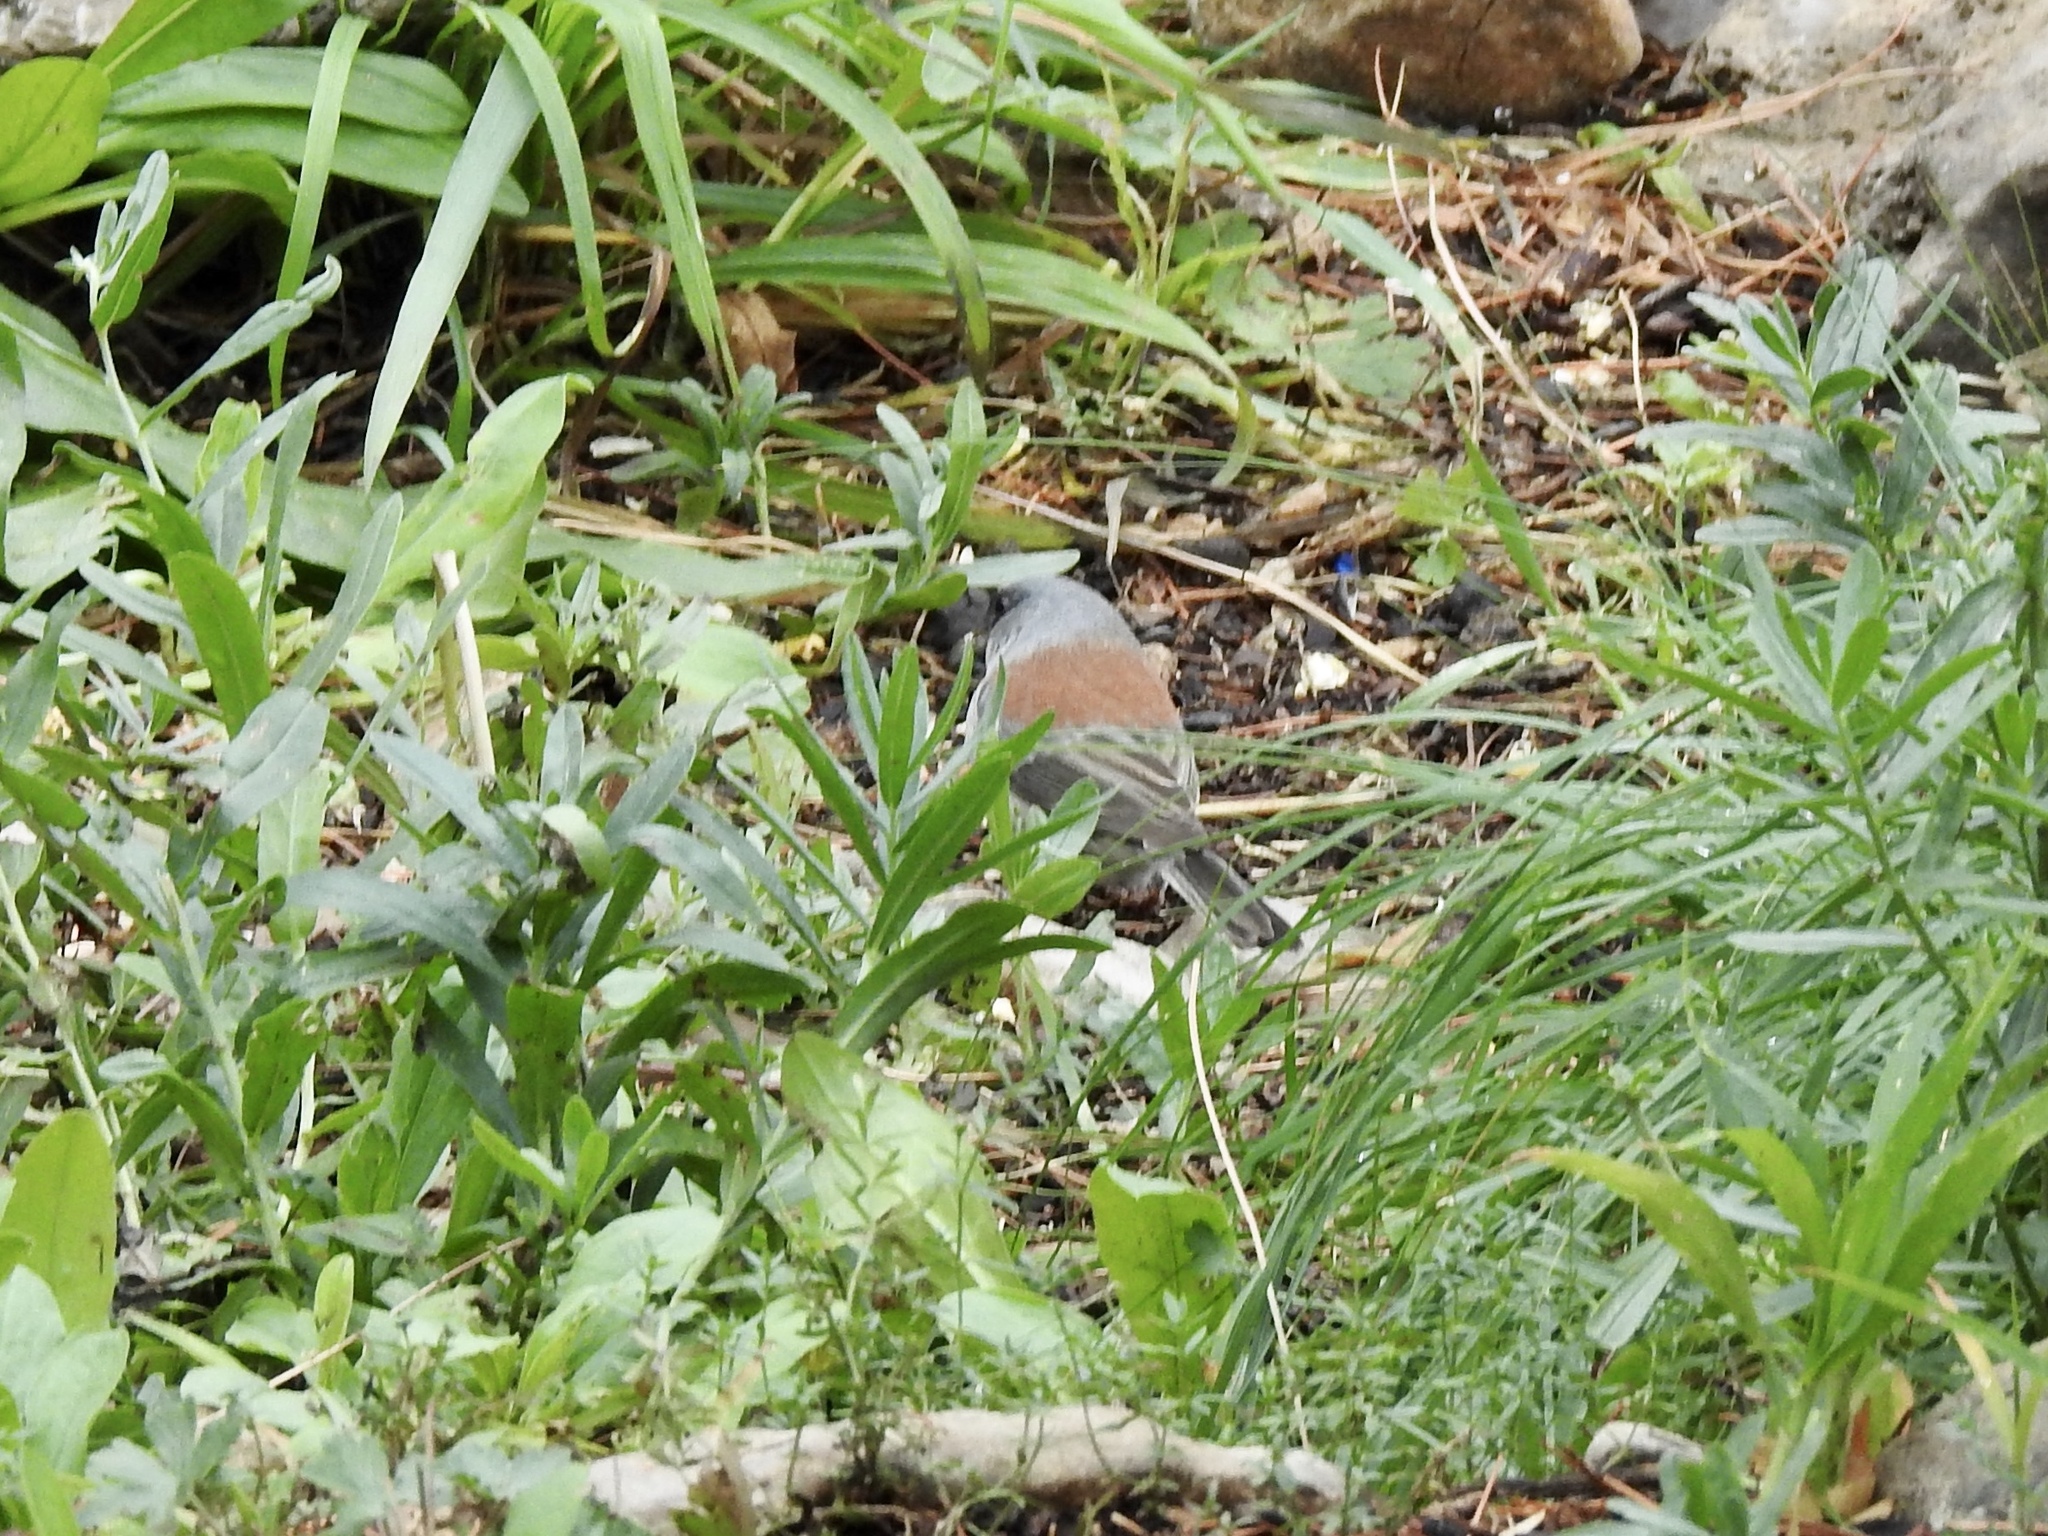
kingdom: Animalia
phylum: Chordata
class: Aves
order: Passeriformes
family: Passerellidae
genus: Junco
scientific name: Junco hyemalis
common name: Dark-eyed junco
